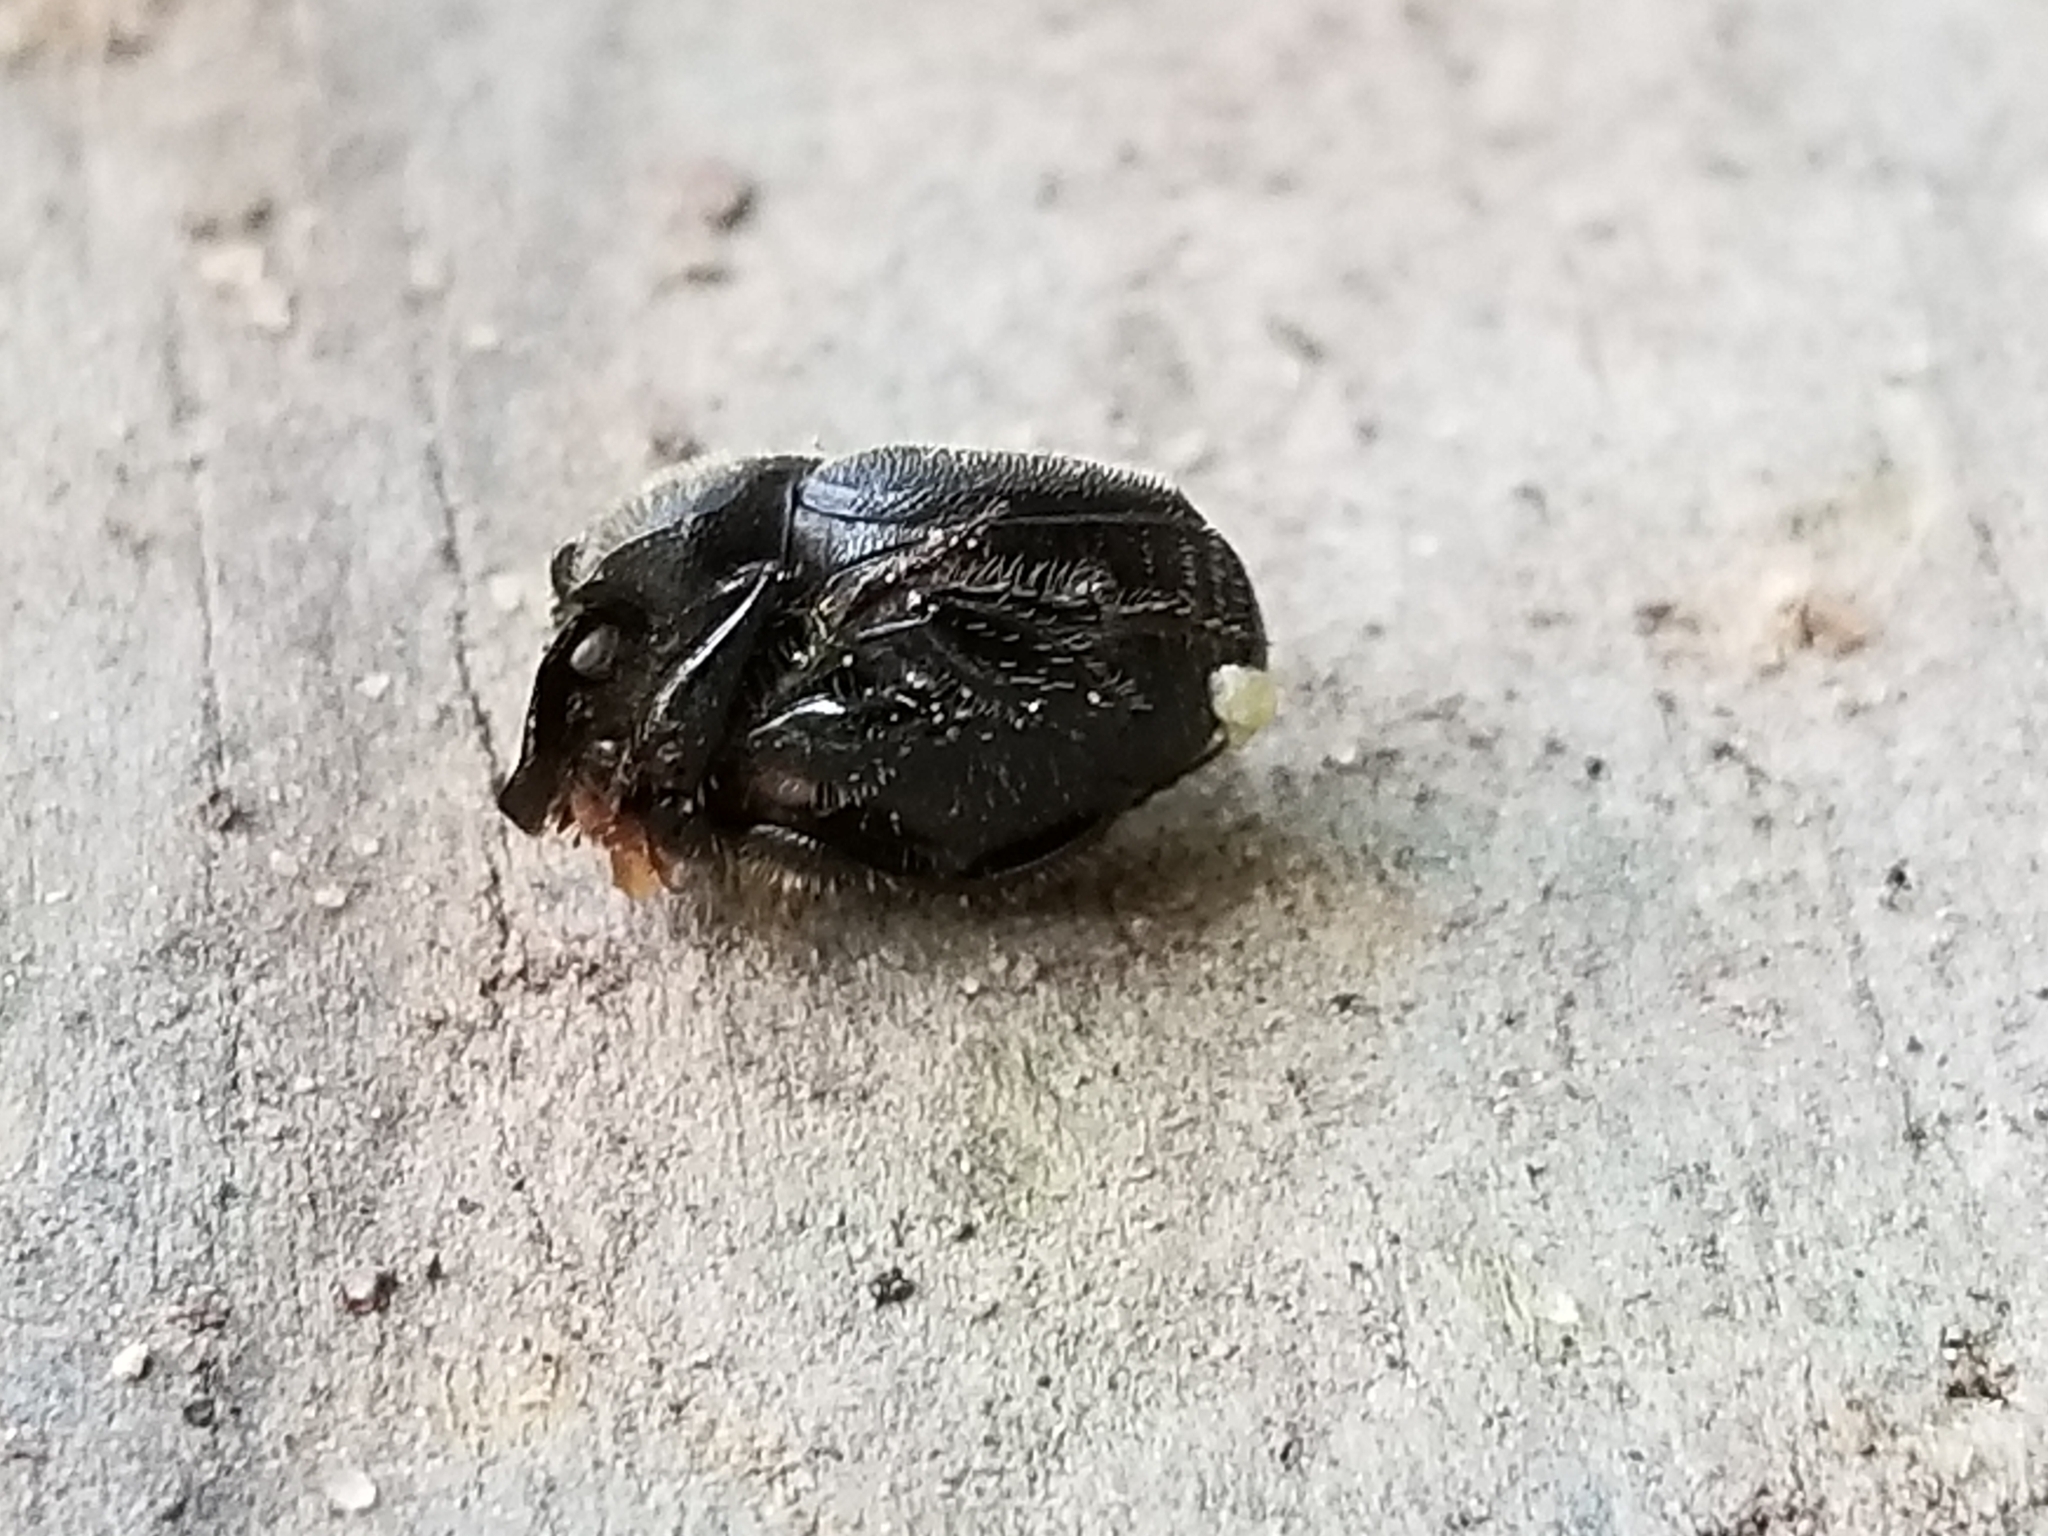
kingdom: Animalia
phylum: Arthropoda
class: Insecta
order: Coleoptera
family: Scarabaeidae
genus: Onthophagus
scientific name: Onthophagus hecate
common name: Scooped scarab
